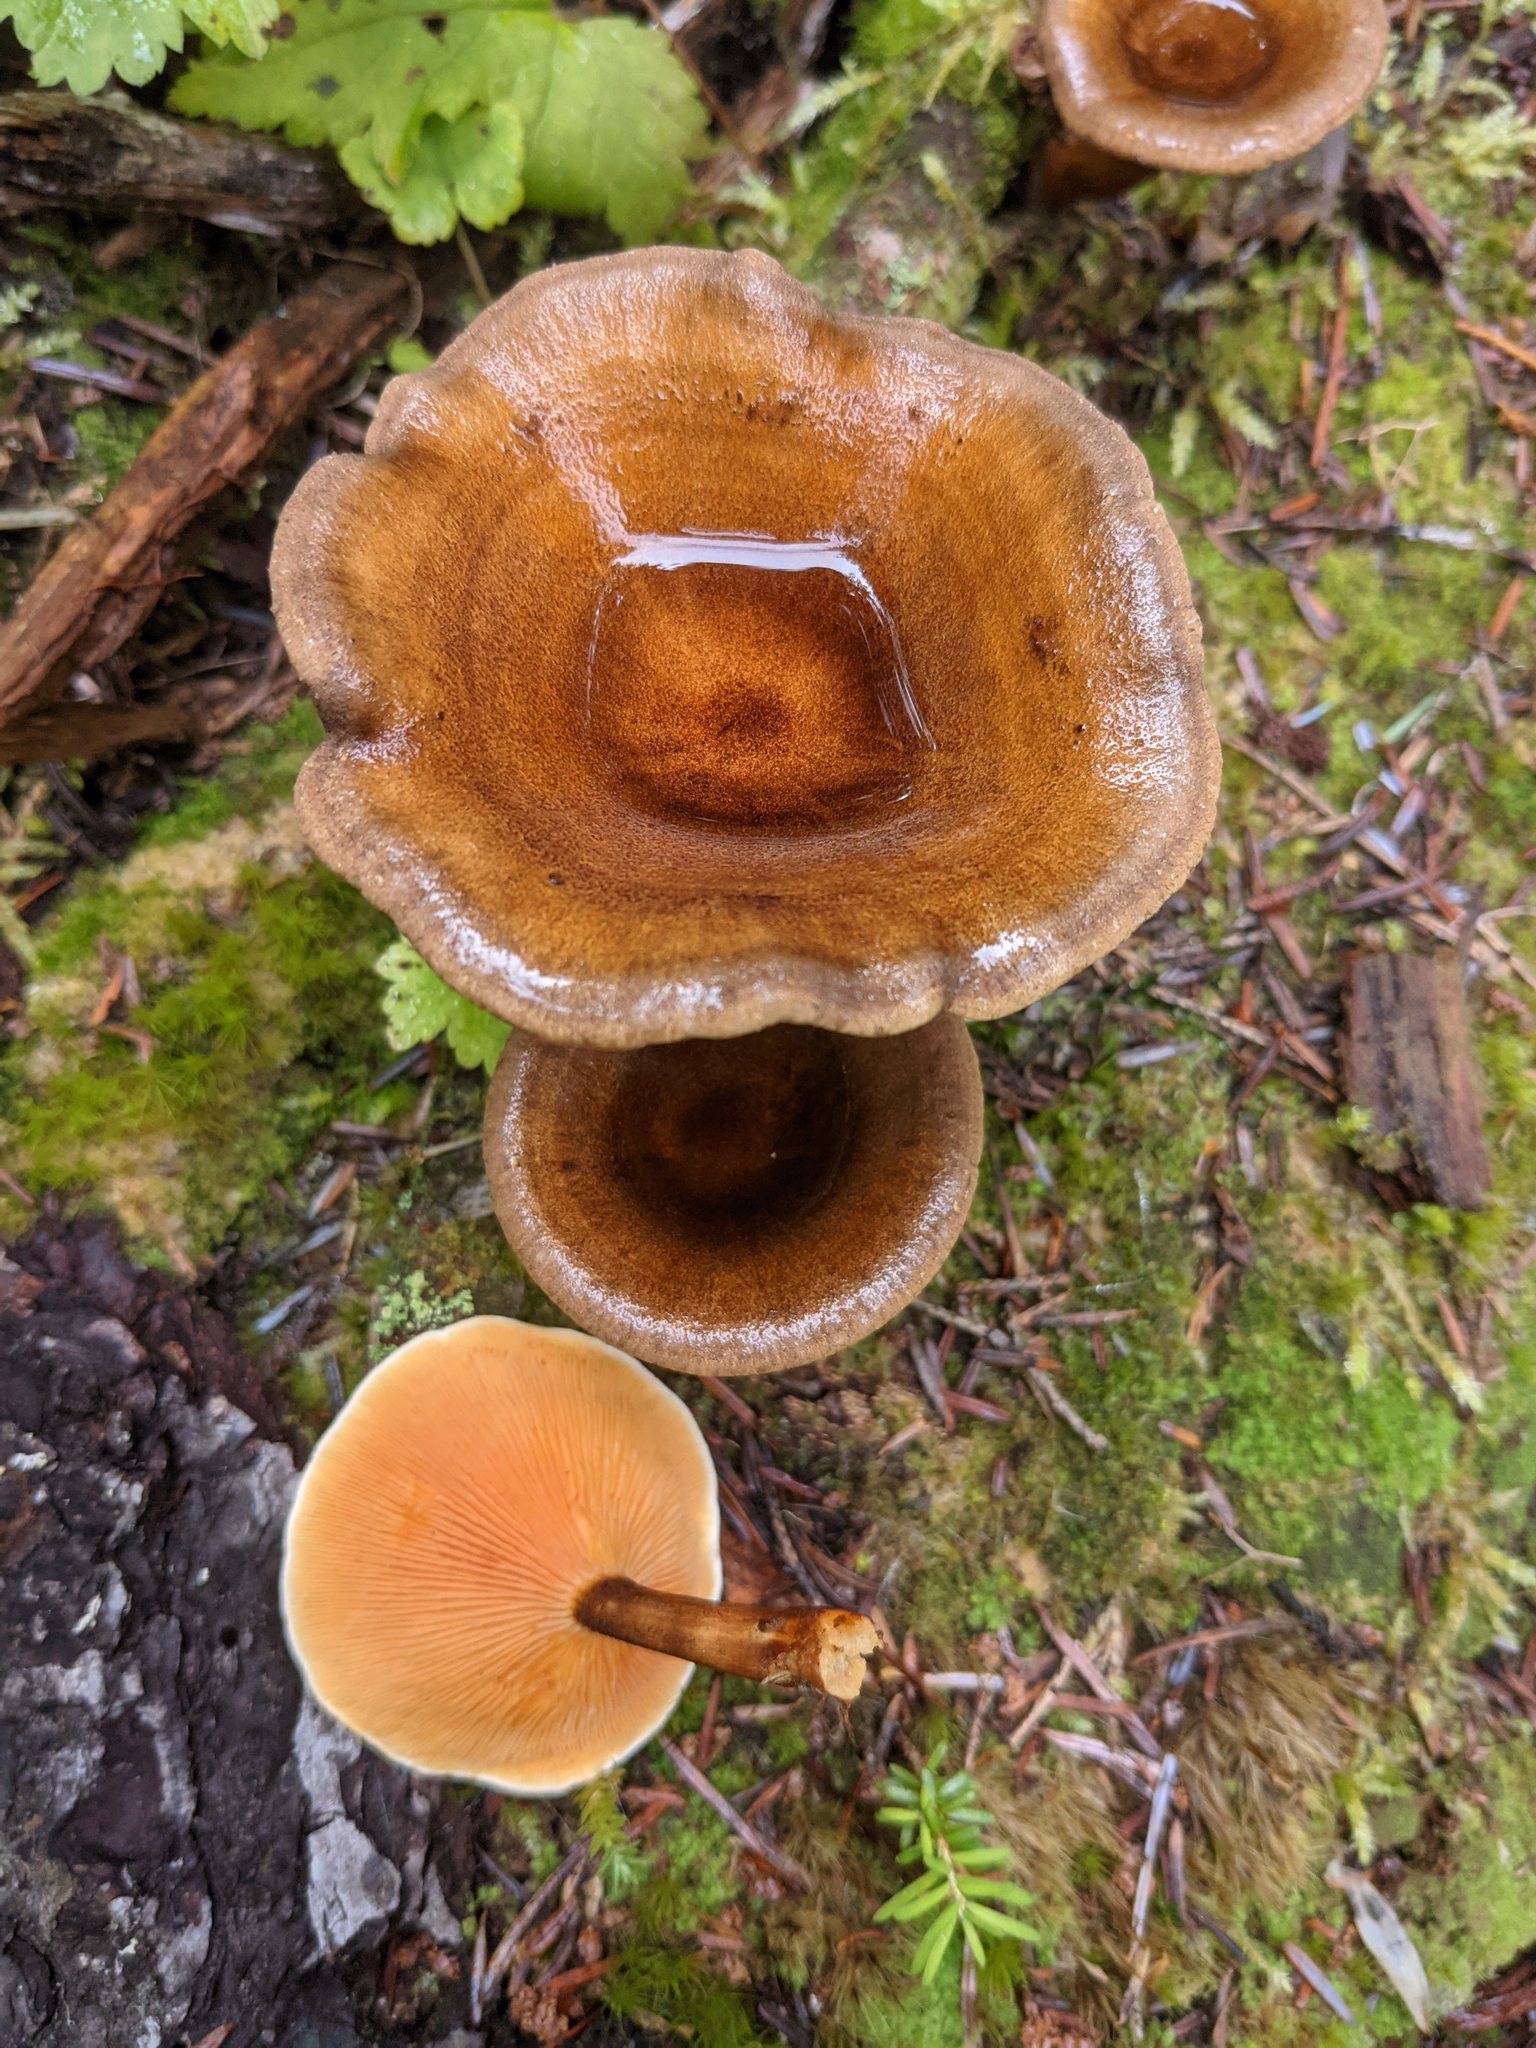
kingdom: Fungi
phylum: Basidiomycota
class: Agaricomycetes
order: Boletales
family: Hygrophoropsidaceae
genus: Hygrophoropsis
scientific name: Hygrophoropsis aurantiaca
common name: False chanterelle
